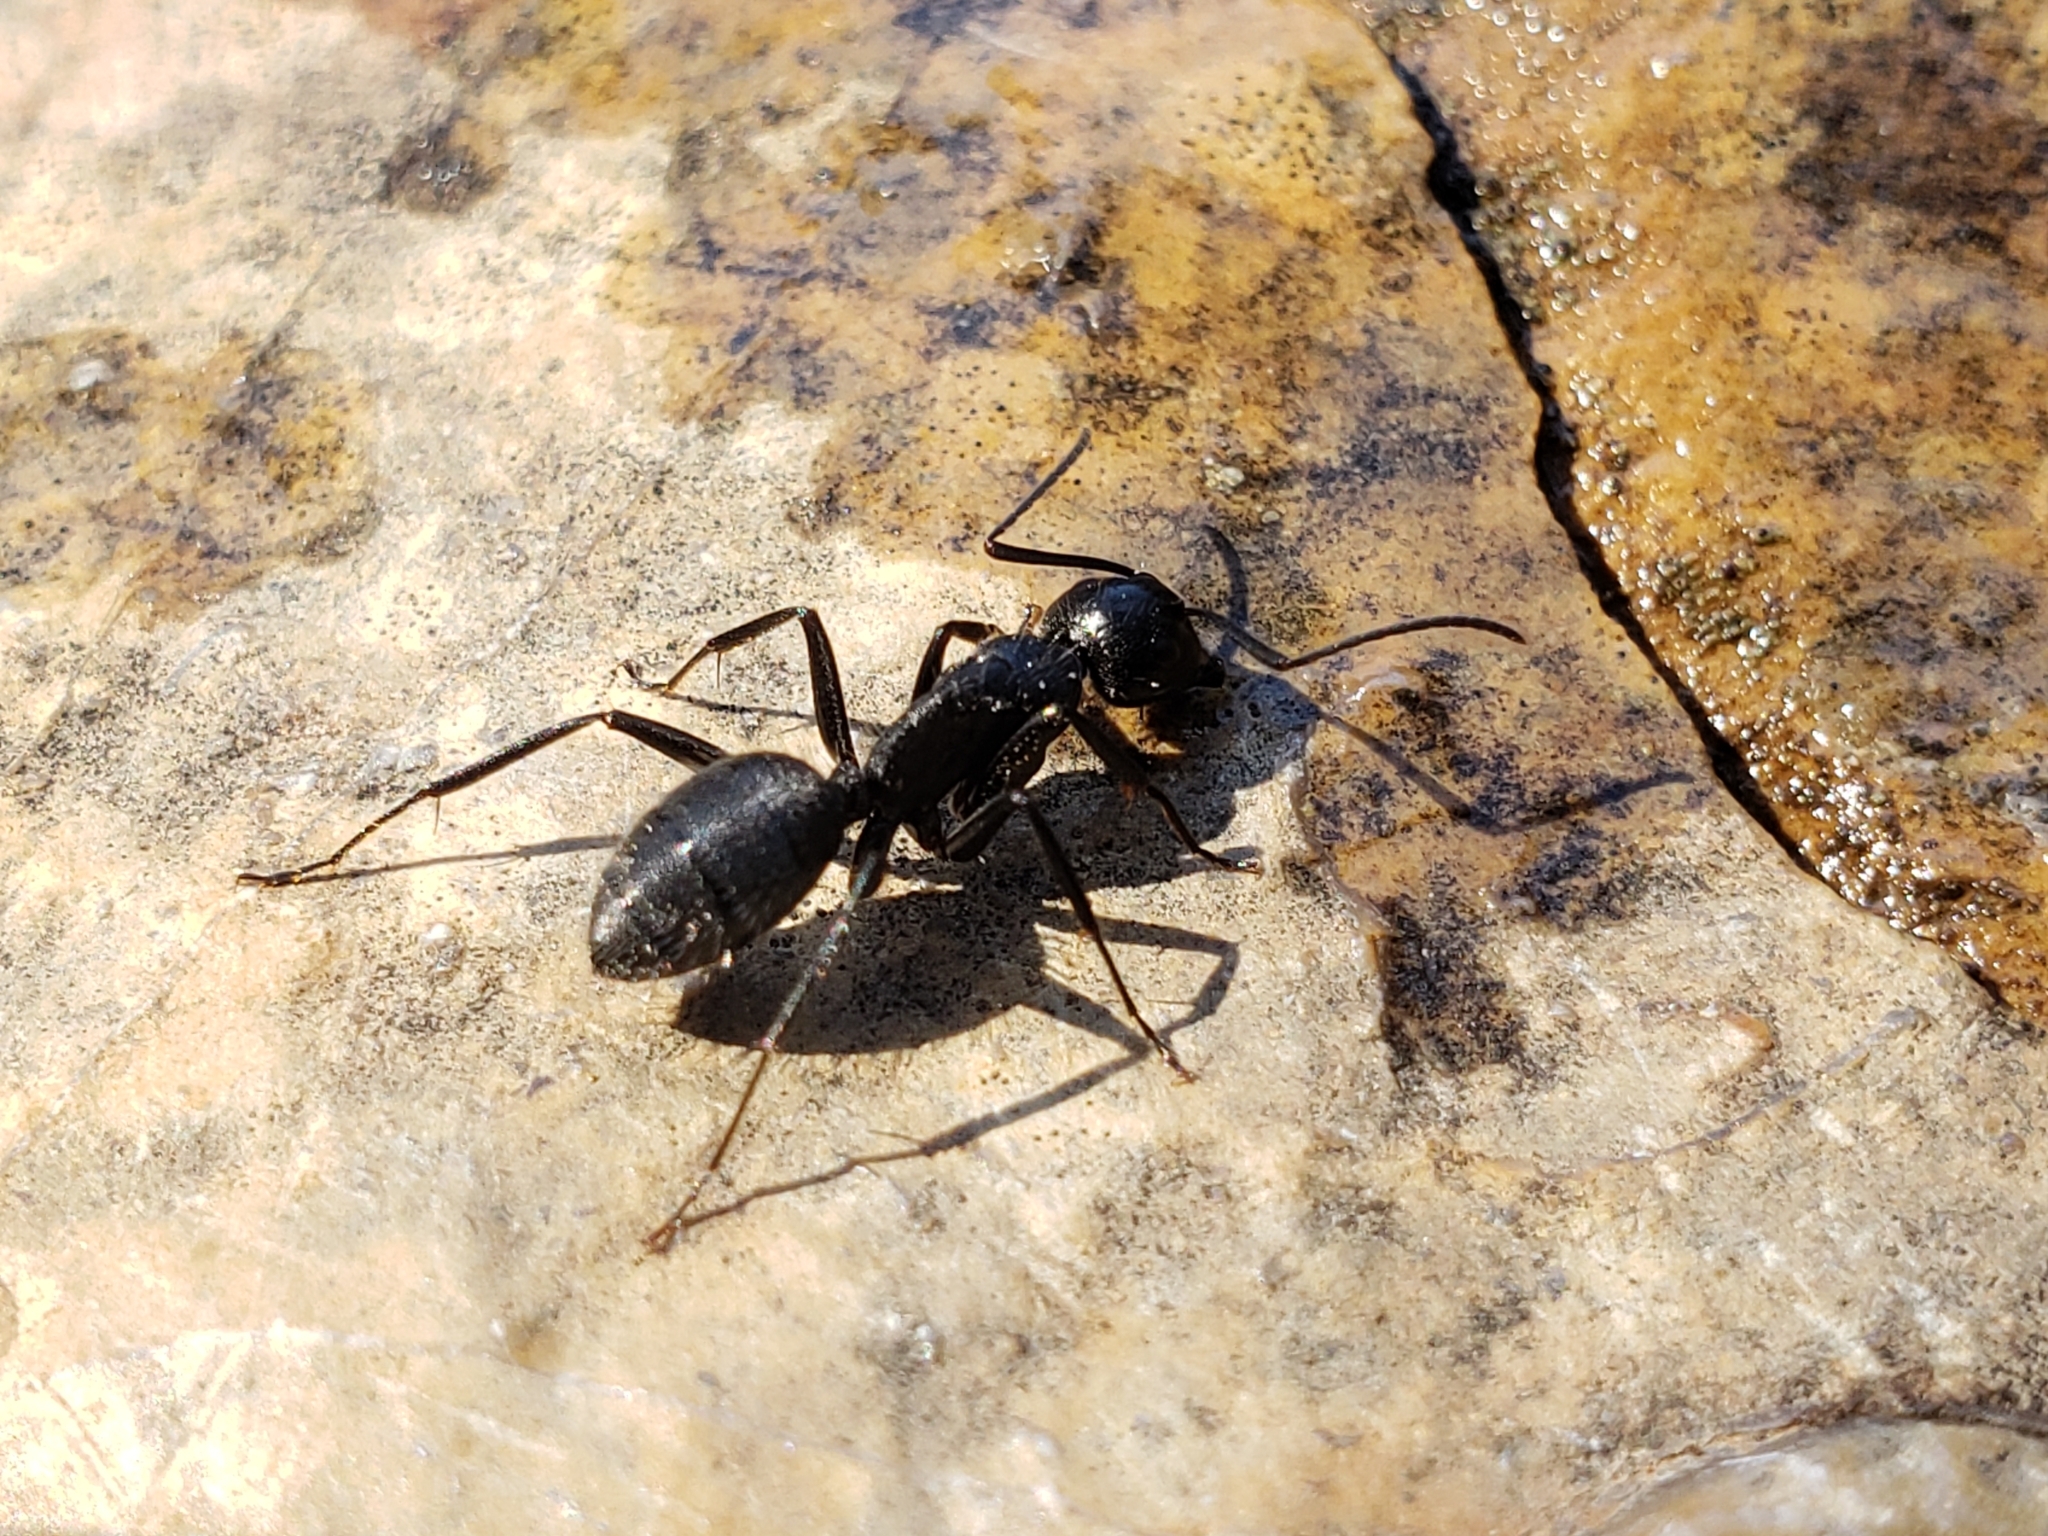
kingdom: Animalia
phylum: Arthropoda
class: Insecta
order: Hymenoptera
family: Formicidae
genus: Camponotus
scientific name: Camponotus vagus
